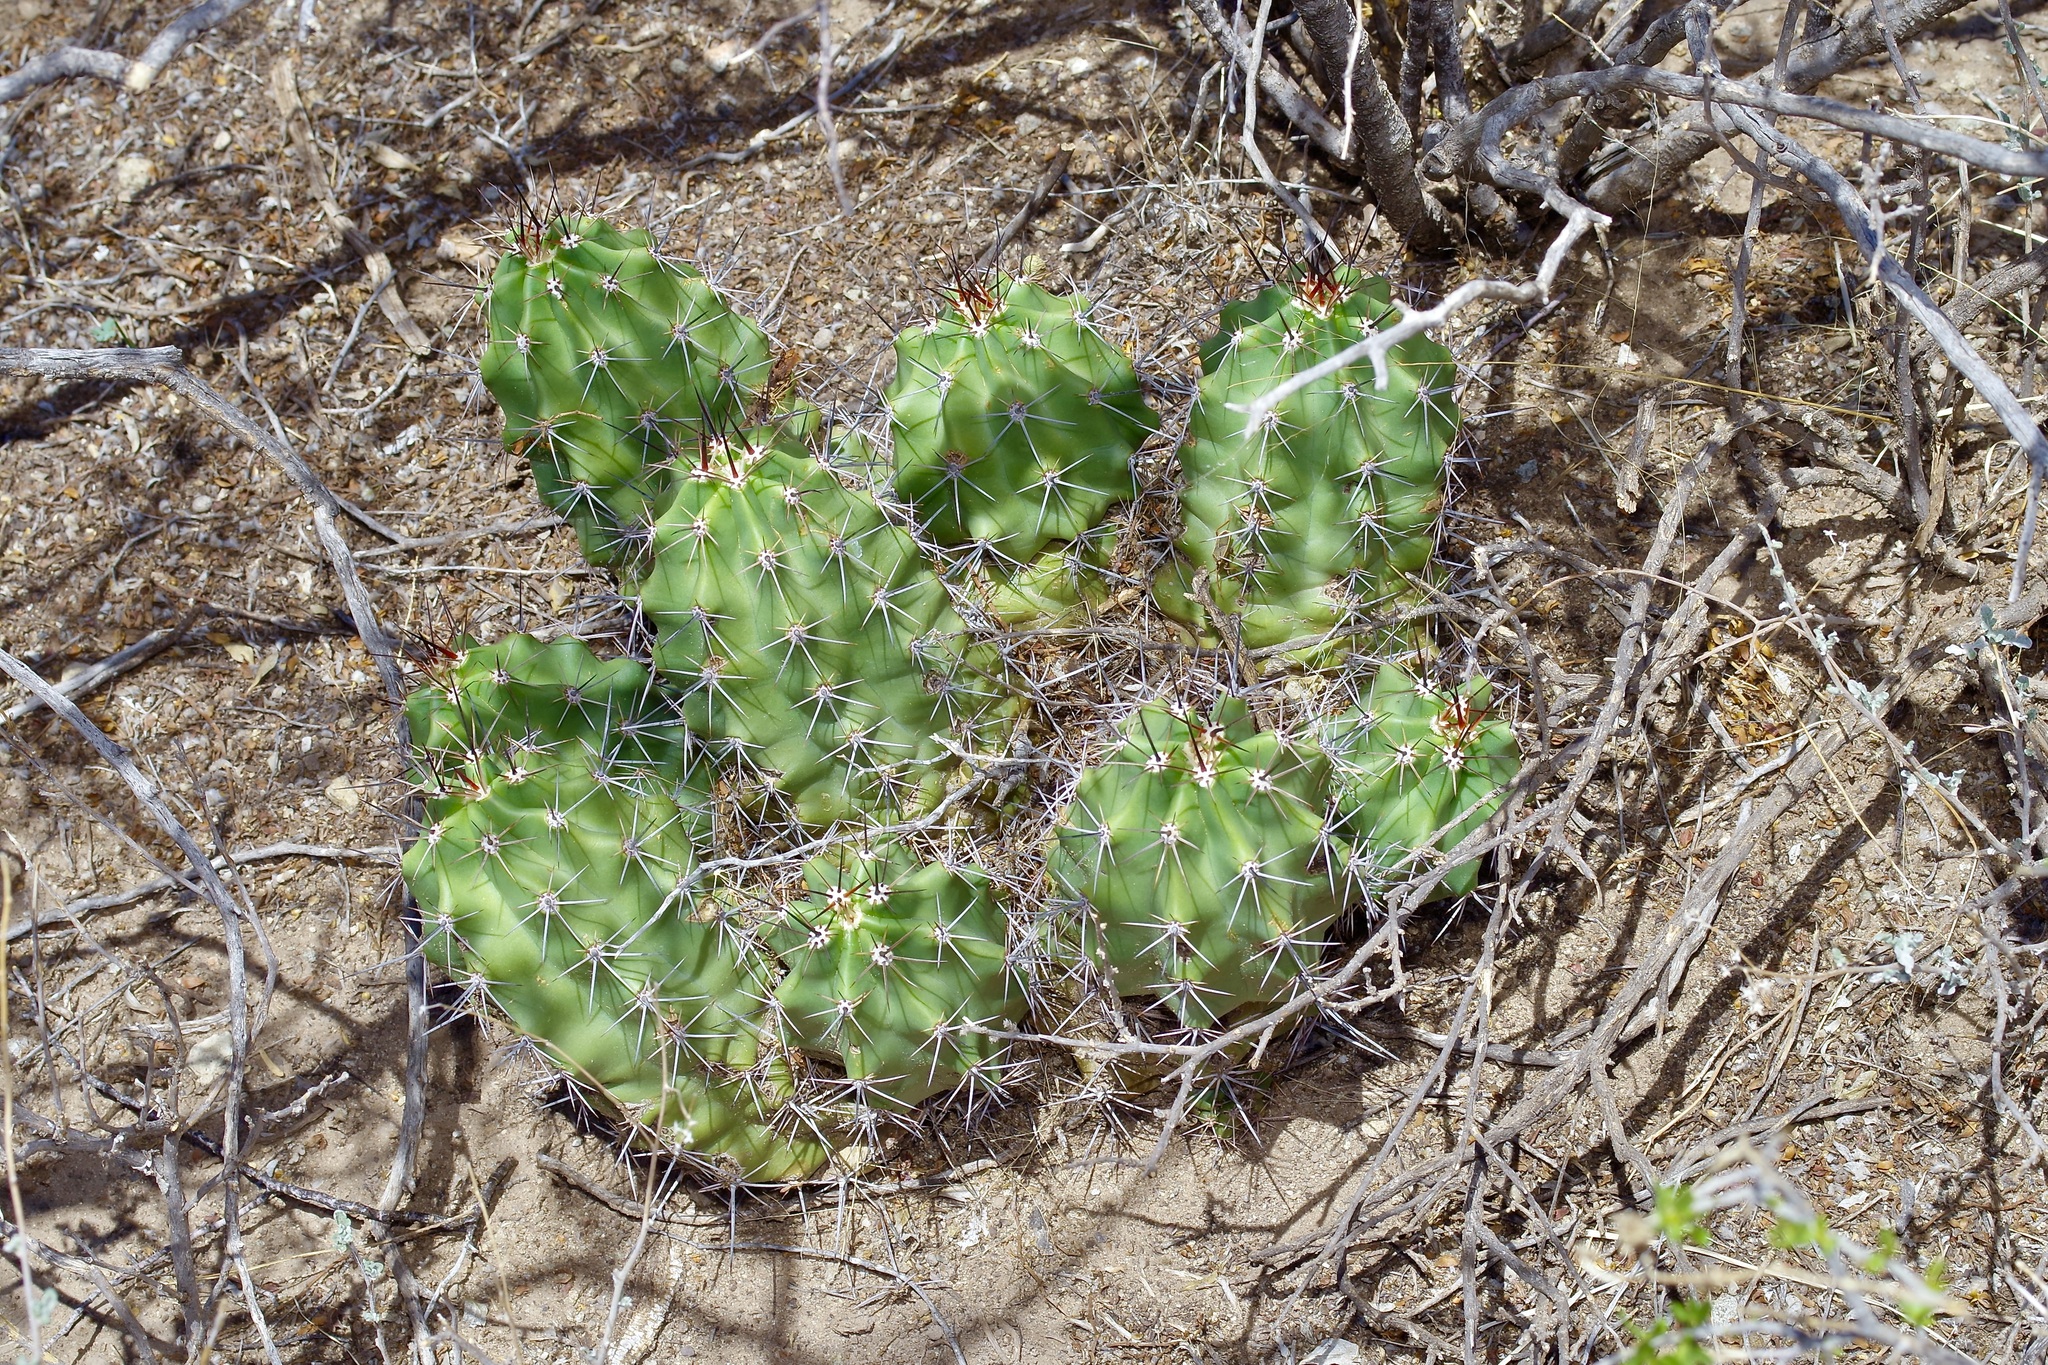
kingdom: Plantae
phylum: Tracheophyta
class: Magnoliopsida
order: Caryophyllales
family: Cactaceae
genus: Echinocereus
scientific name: Echinocereus coccineus
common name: Scarlet hedgehog cactus
